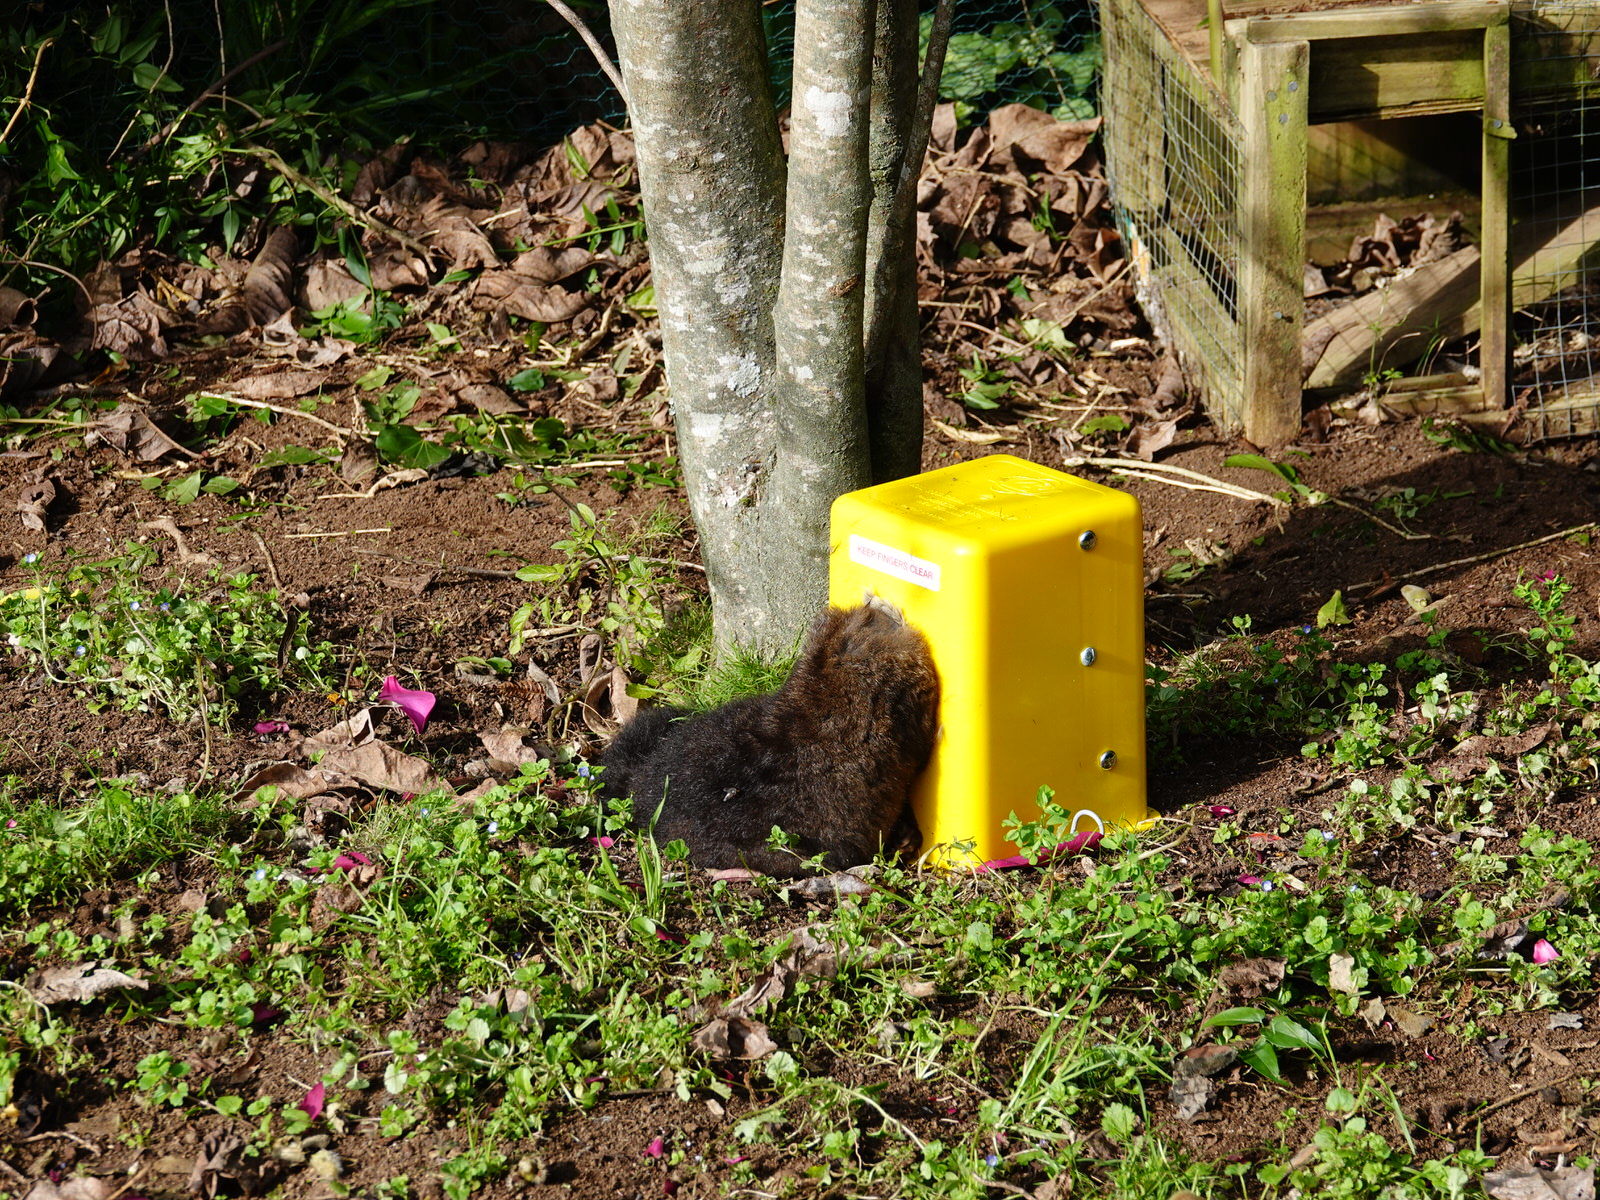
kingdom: Animalia
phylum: Chordata
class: Mammalia
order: Diprotodontia
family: Phalangeridae
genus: Trichosurus
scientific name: Trichosurus vulpecula
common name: Common brushtail
